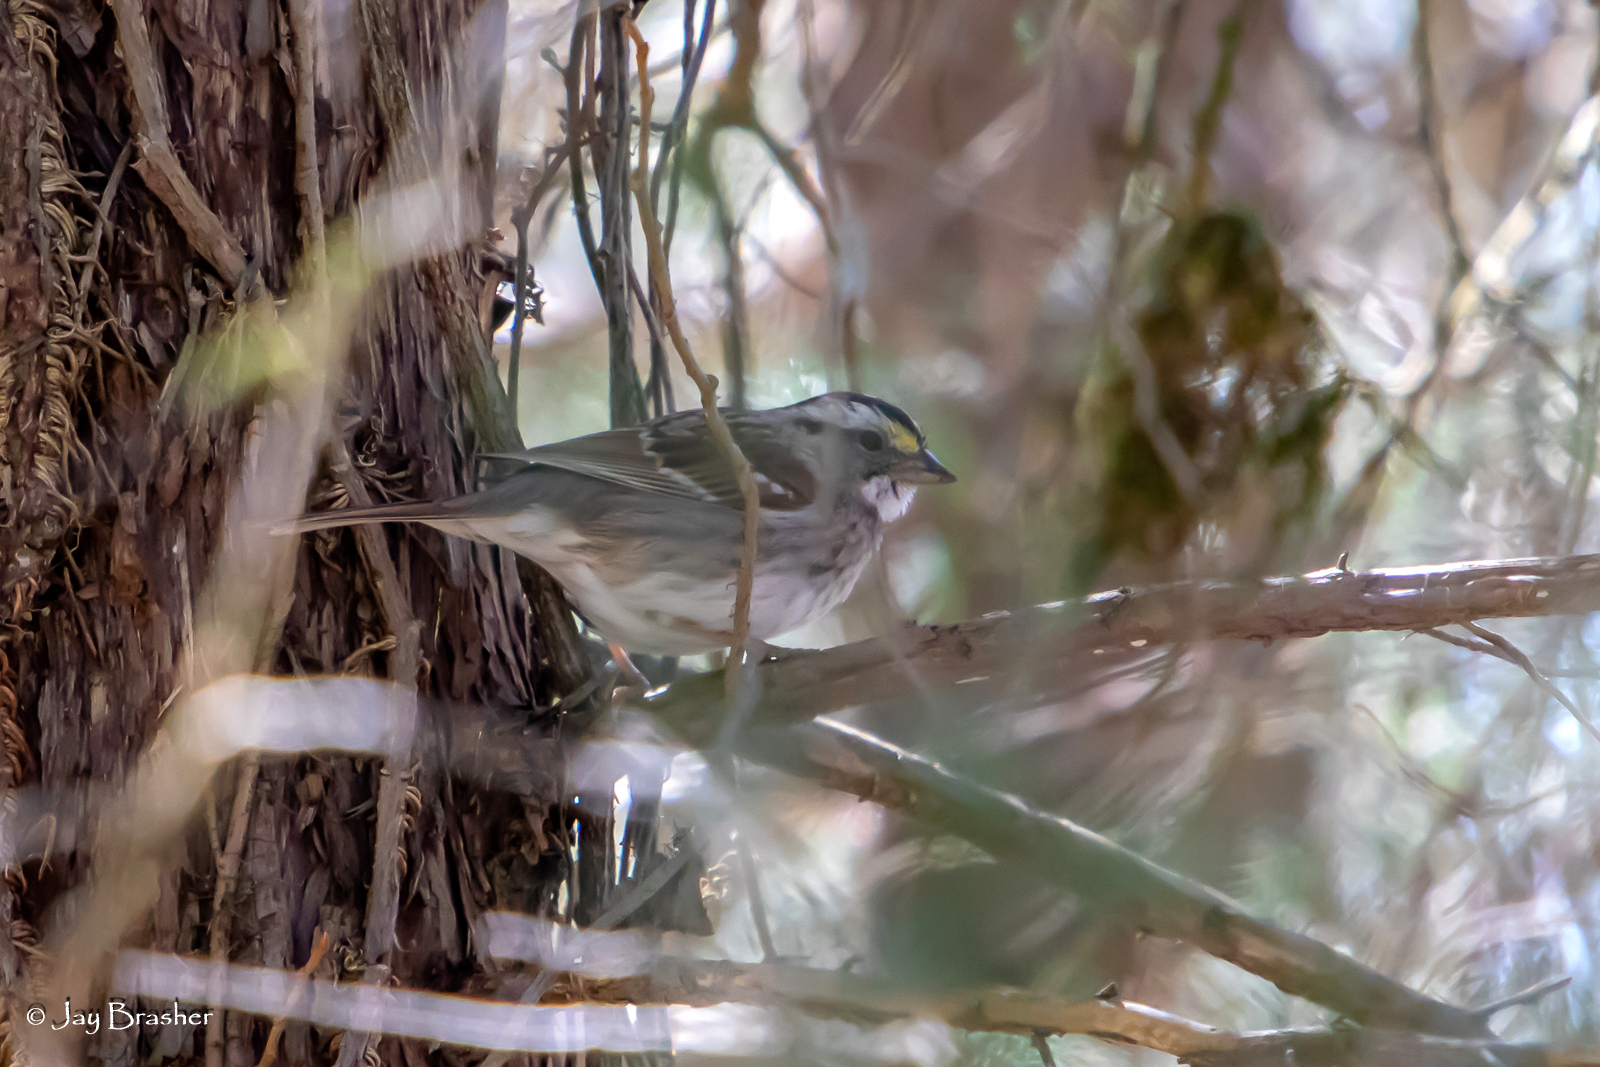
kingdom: Animalia
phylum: Chordata
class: Aves
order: Passeriformes
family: Passerellidae
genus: Zonotrichia
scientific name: Zonotrichia albicollis
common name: White-throated sparrow
